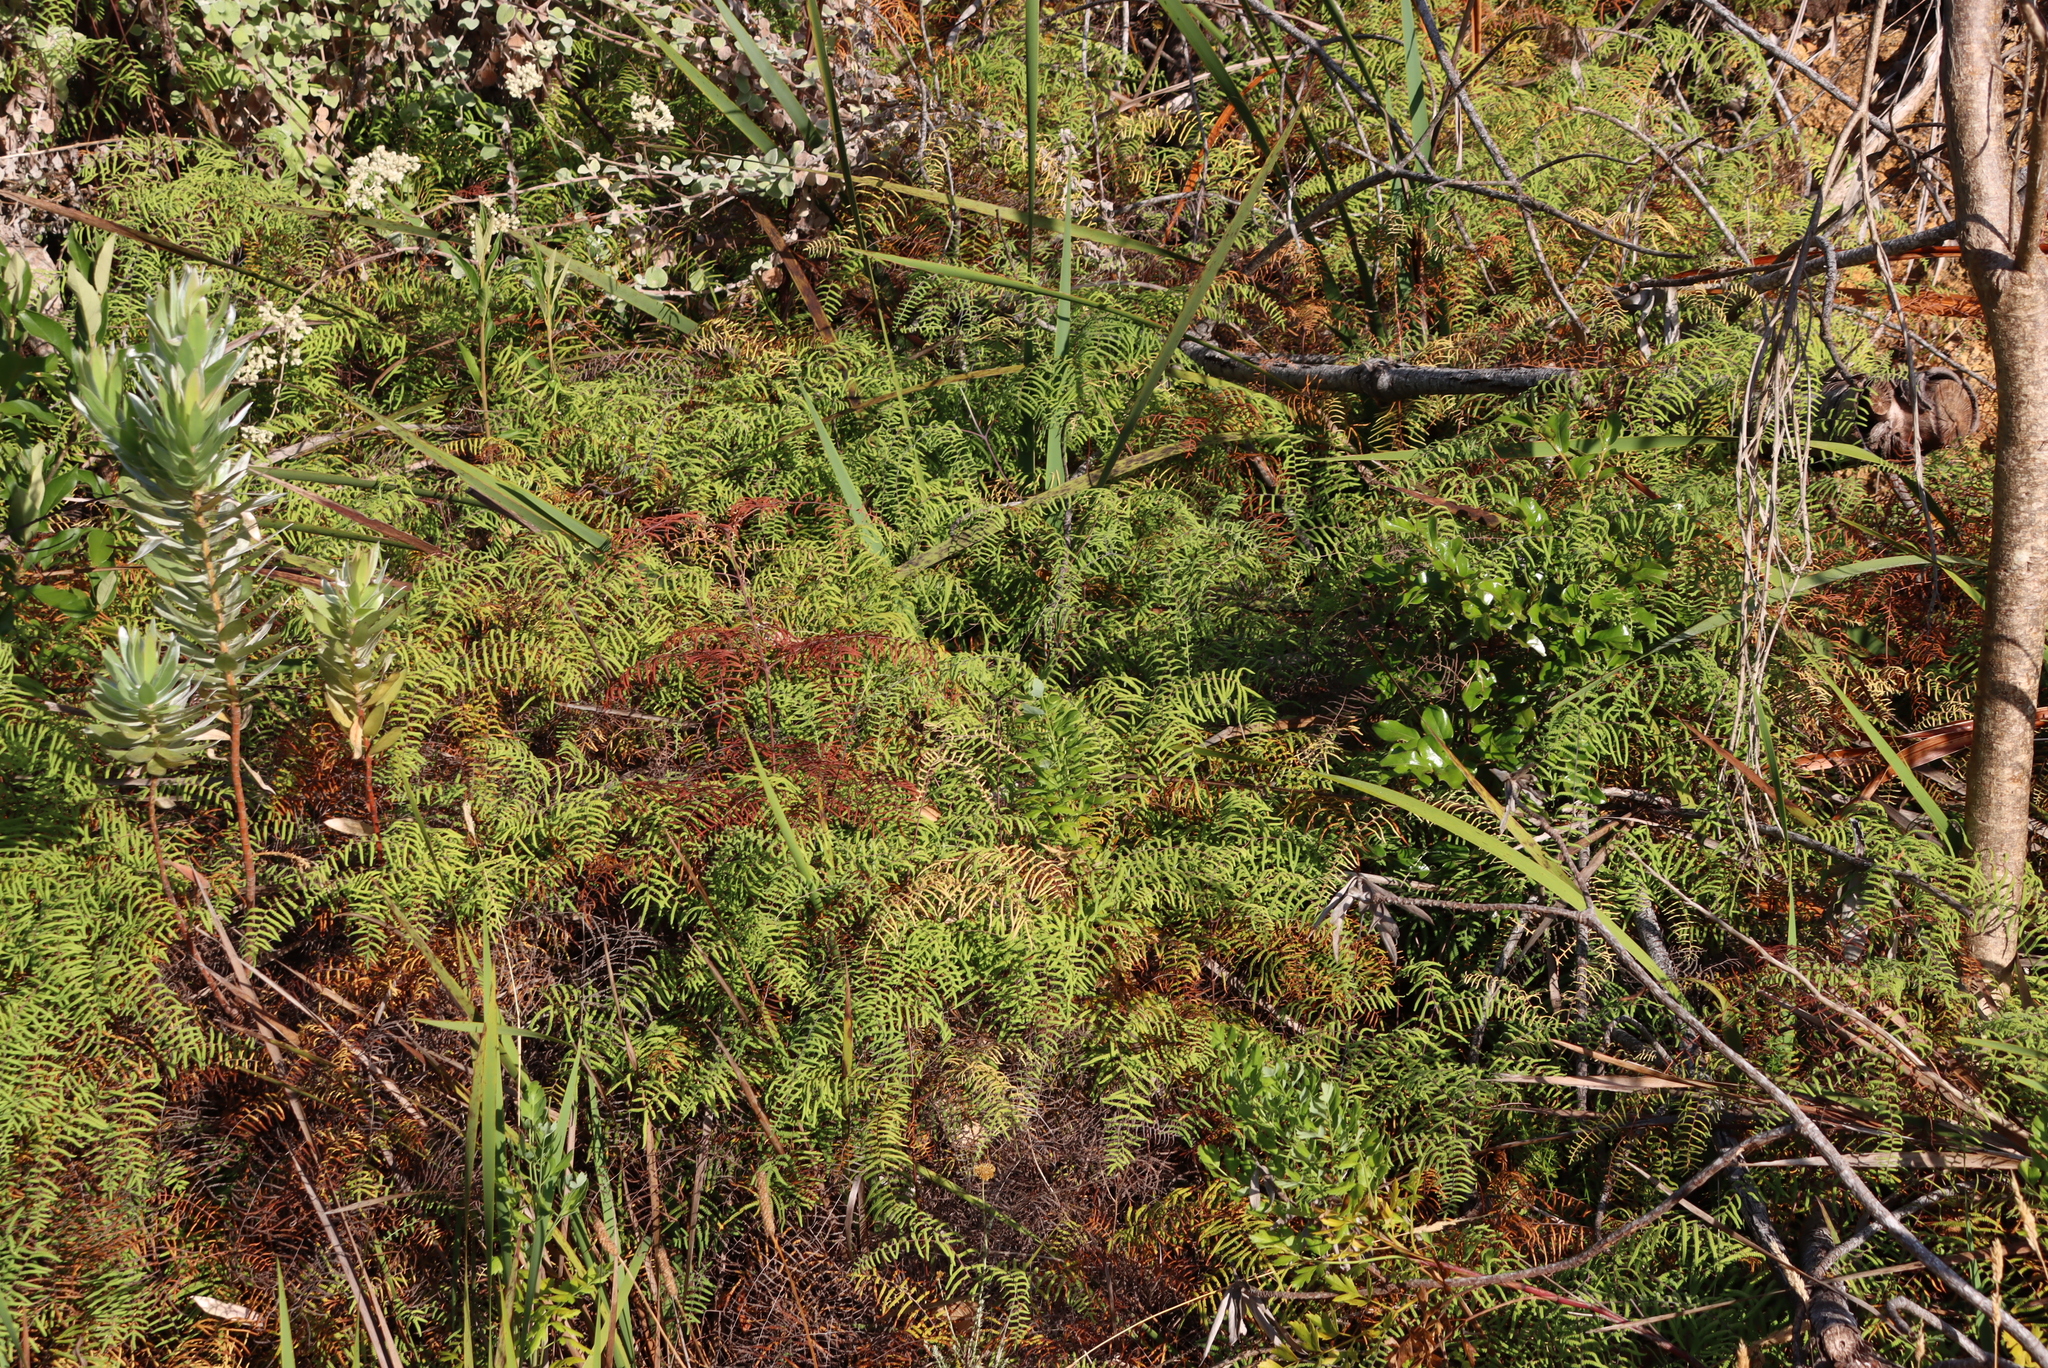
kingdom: Plantae
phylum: Tracheophyta
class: Polypodiopsida
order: Gleicheniales
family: Gleicheniaceae
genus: Gleichenia
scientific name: Gleichenia polypodioides
